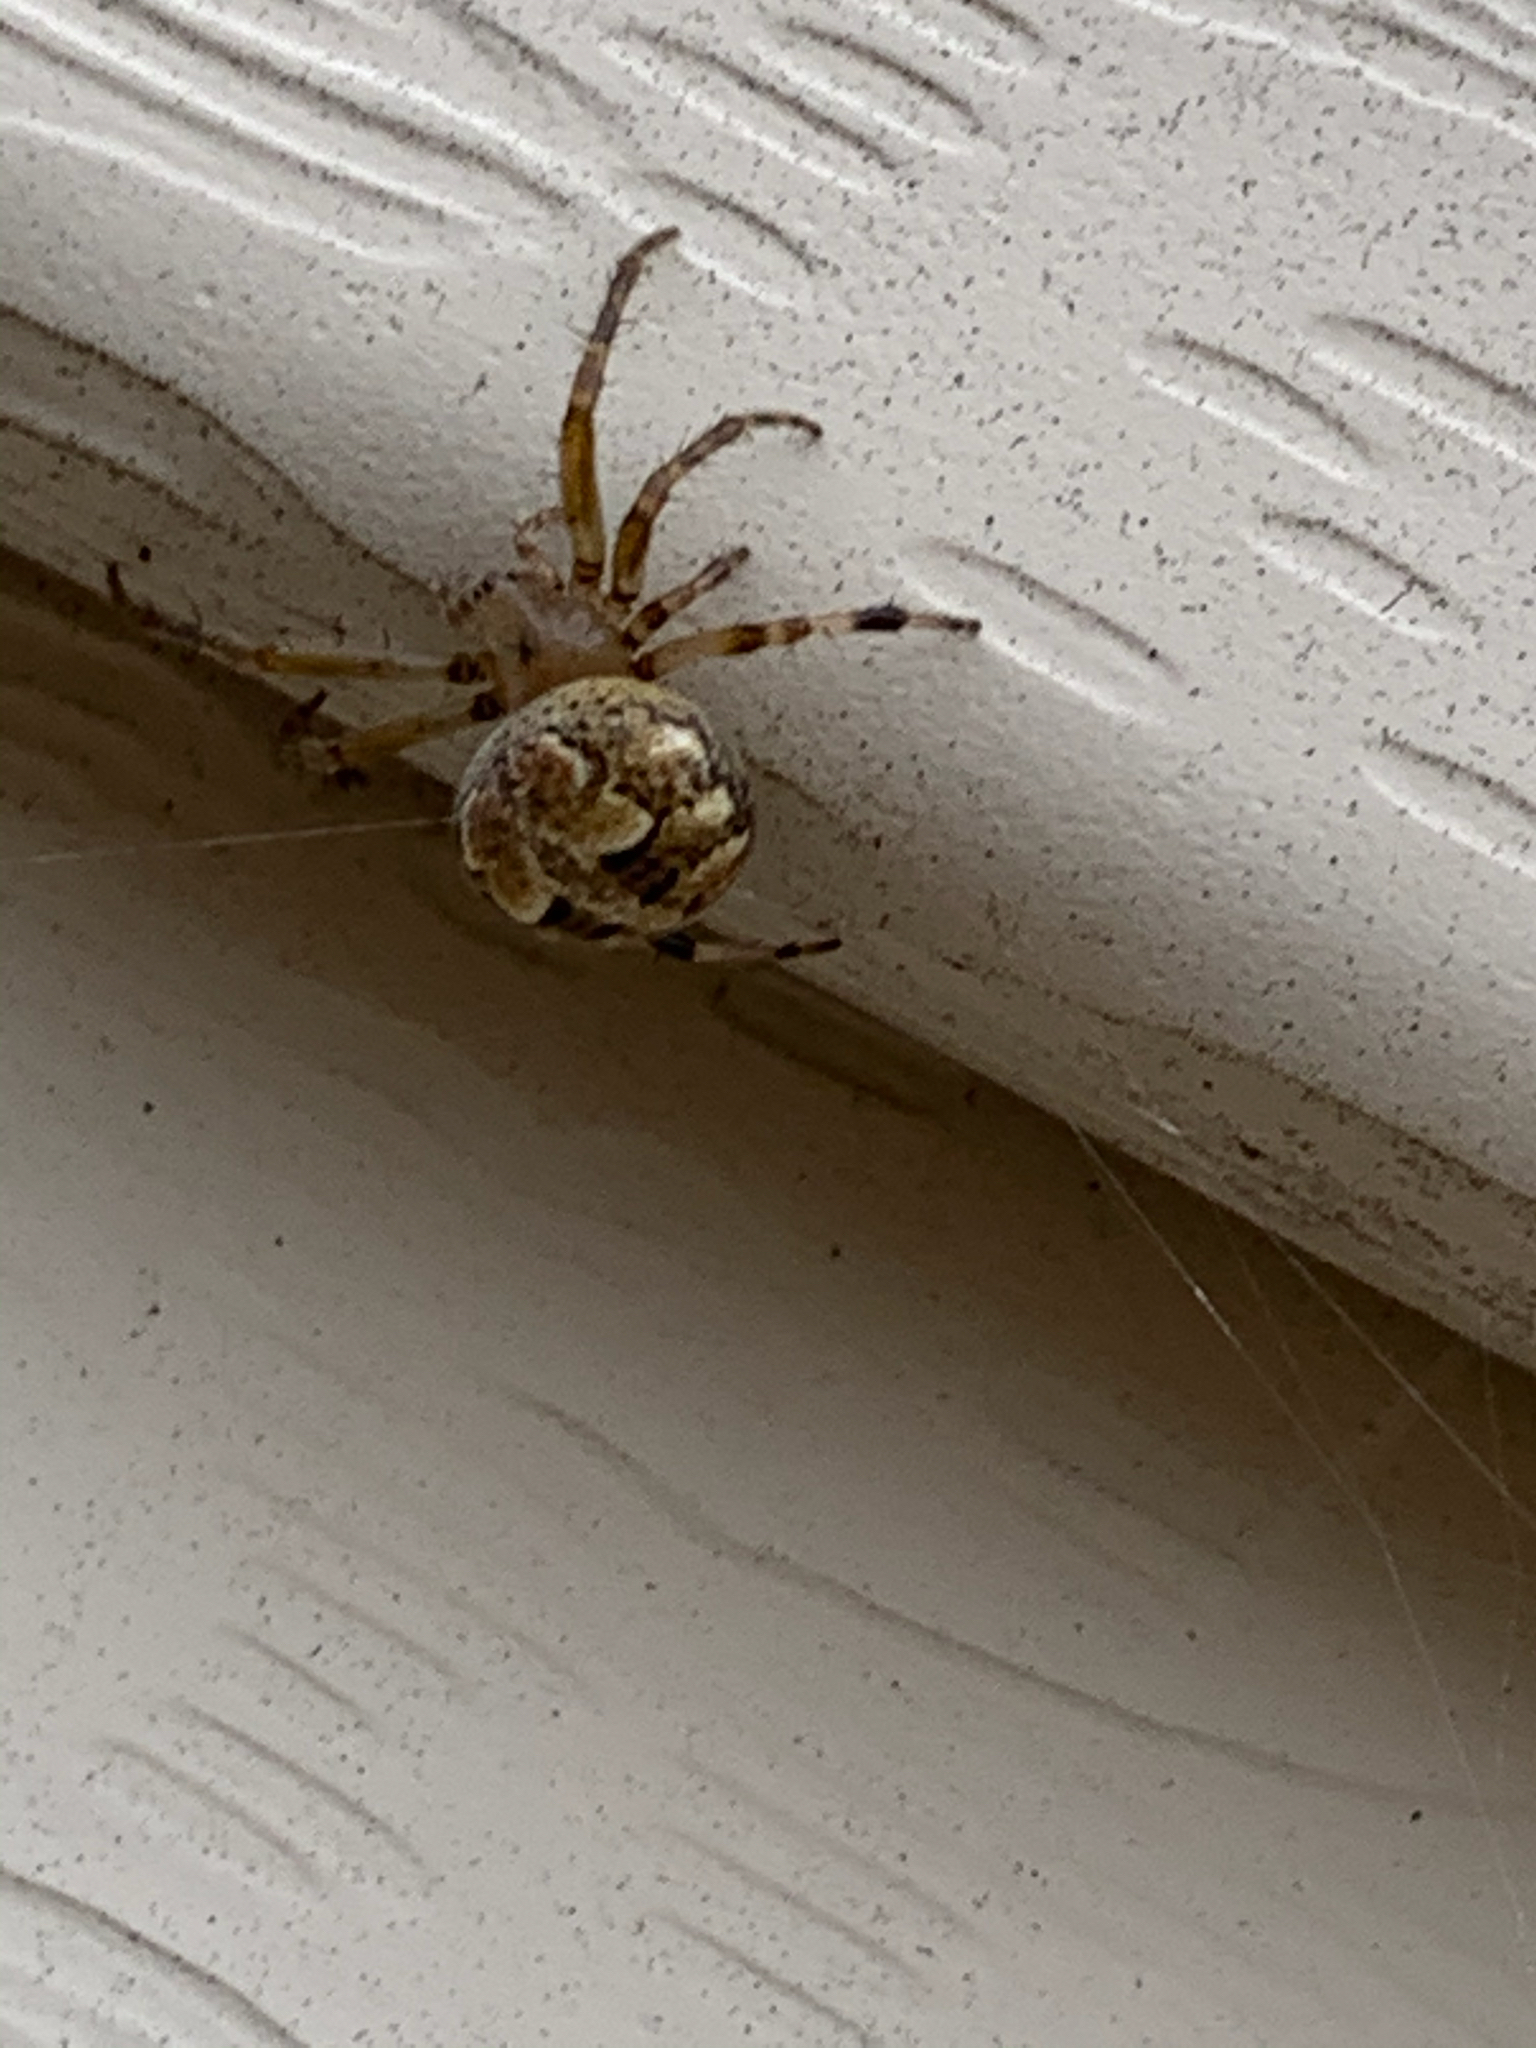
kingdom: Animalia
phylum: Arthropoda
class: Arachnida
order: Araneae
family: Araneidae
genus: Araneus
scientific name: Araneus pegnia
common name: Orb weavers
